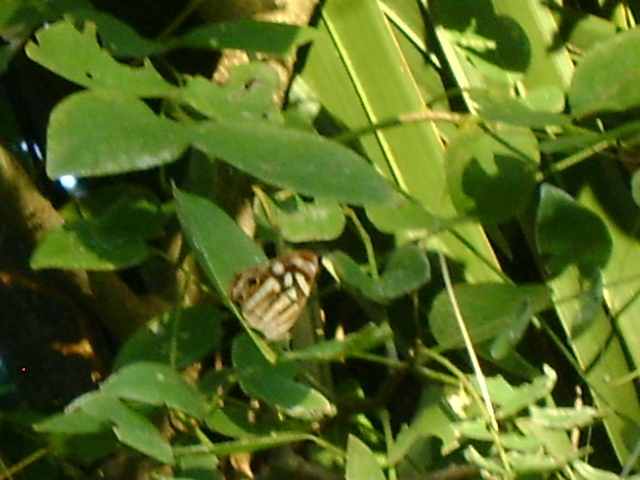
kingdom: Animalia
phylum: Arthropoda
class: Insecta
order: Lepidoptera
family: Nymphalidae
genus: Dynamine
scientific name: Dynamine mylitta
